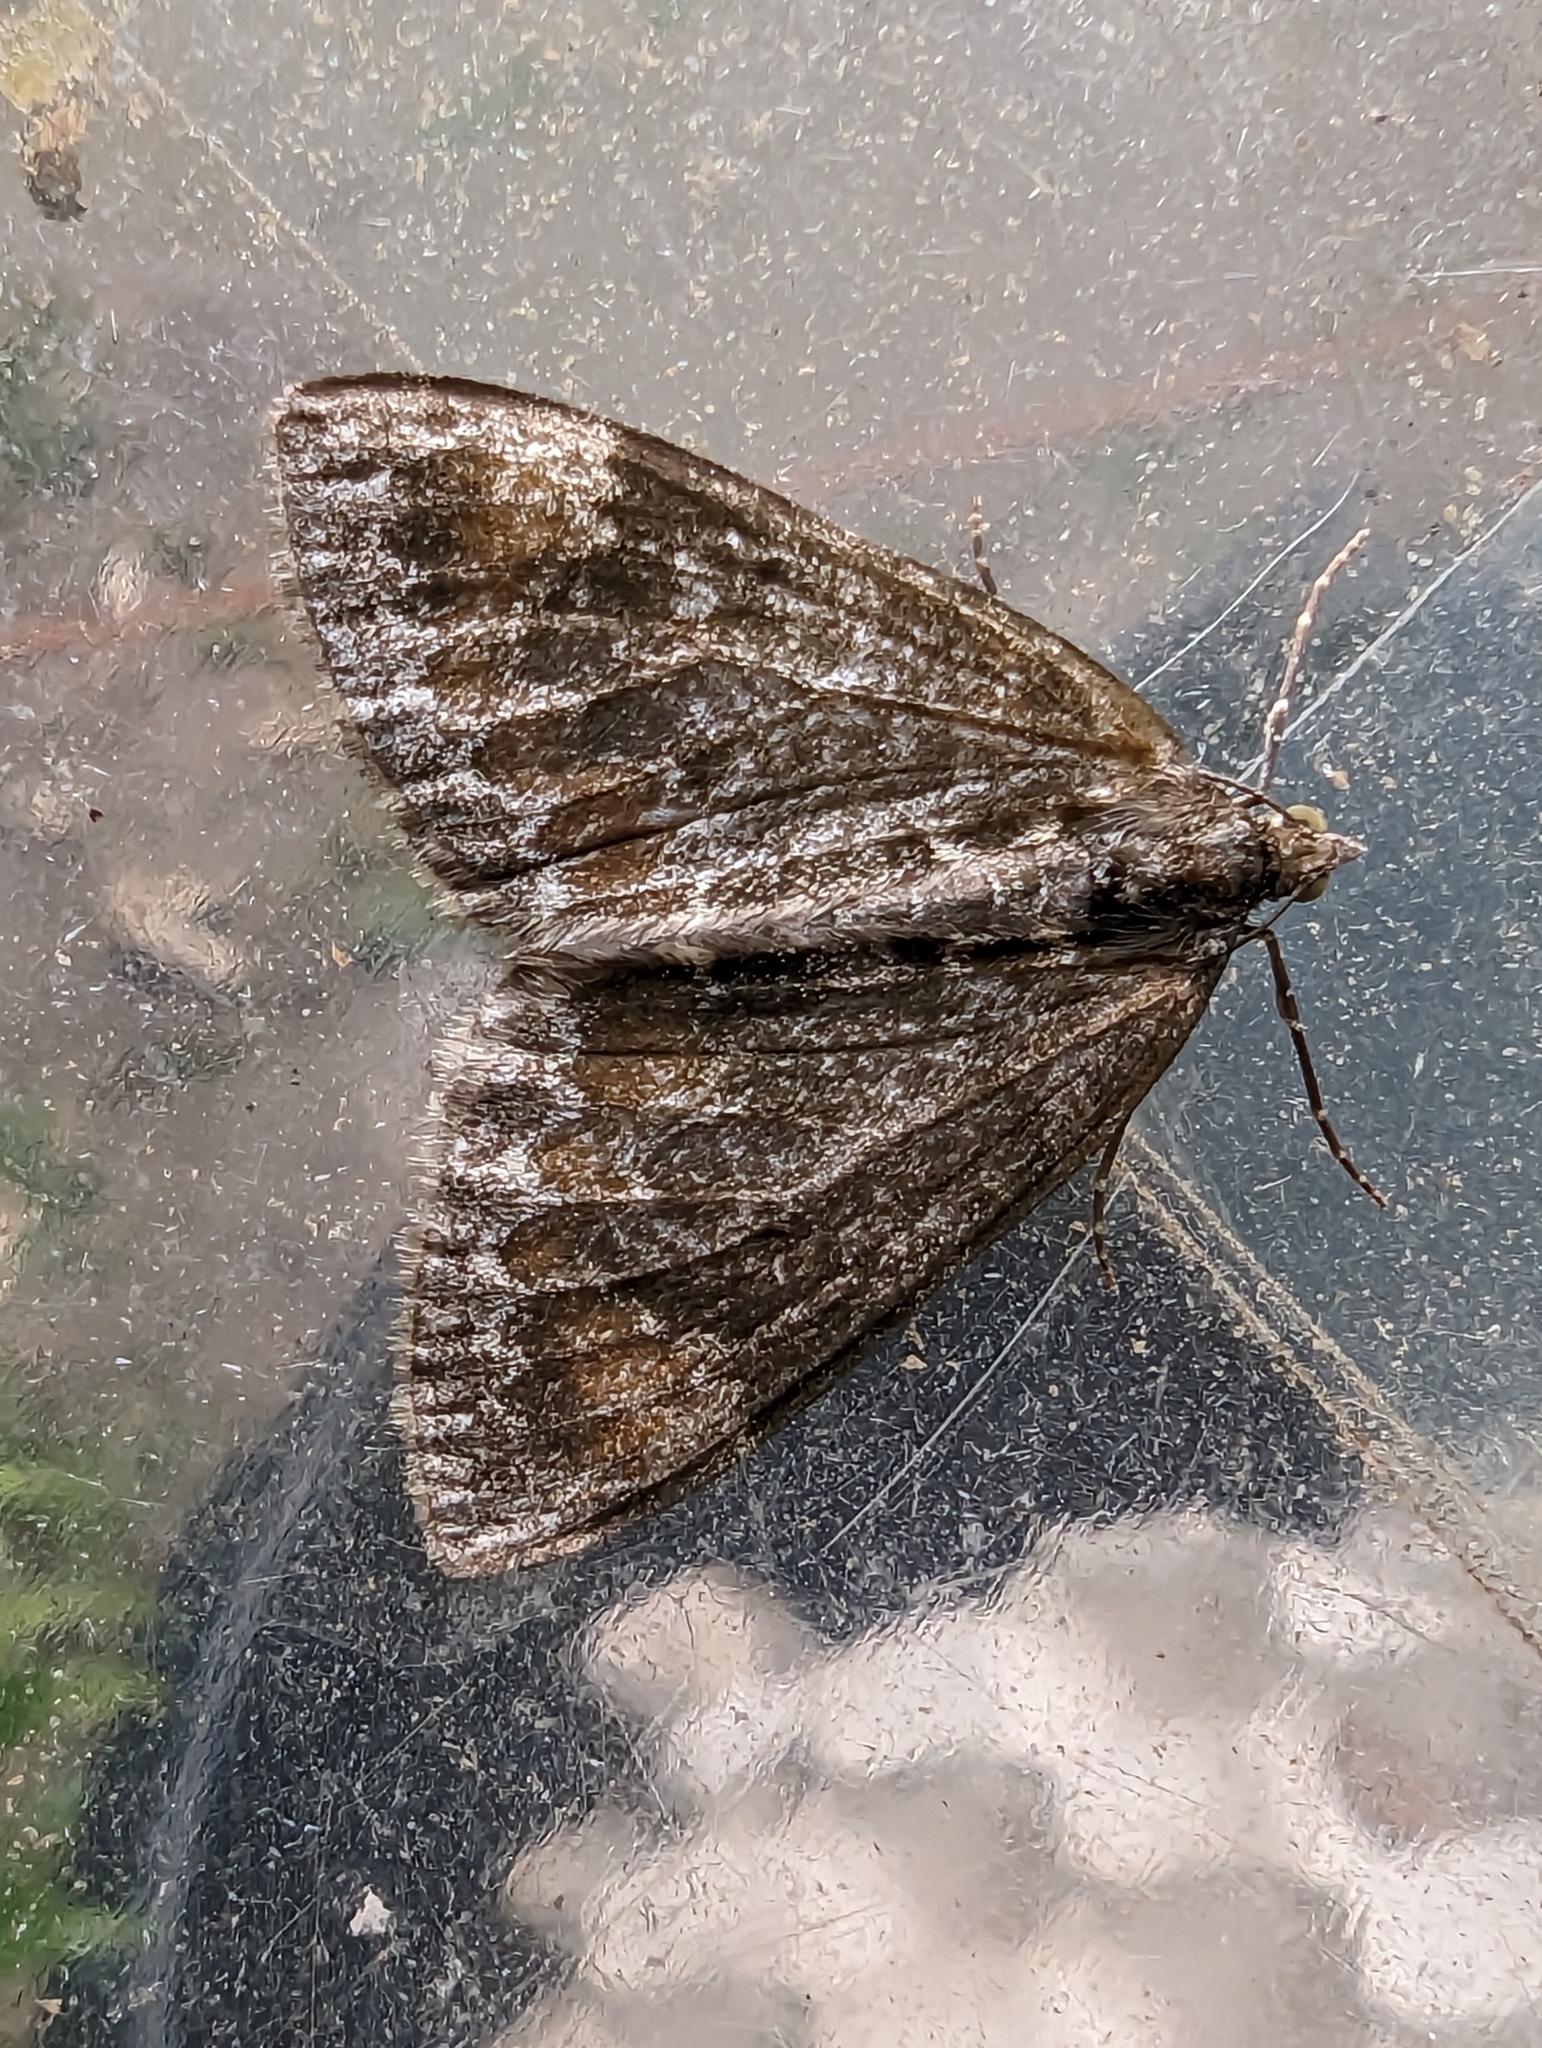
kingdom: Animalia
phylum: Arthropoda
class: Insecta
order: Lepidoptera
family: Geometridae
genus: Dysstroma
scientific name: Dysstroma truncata
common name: Common marbled carpet
